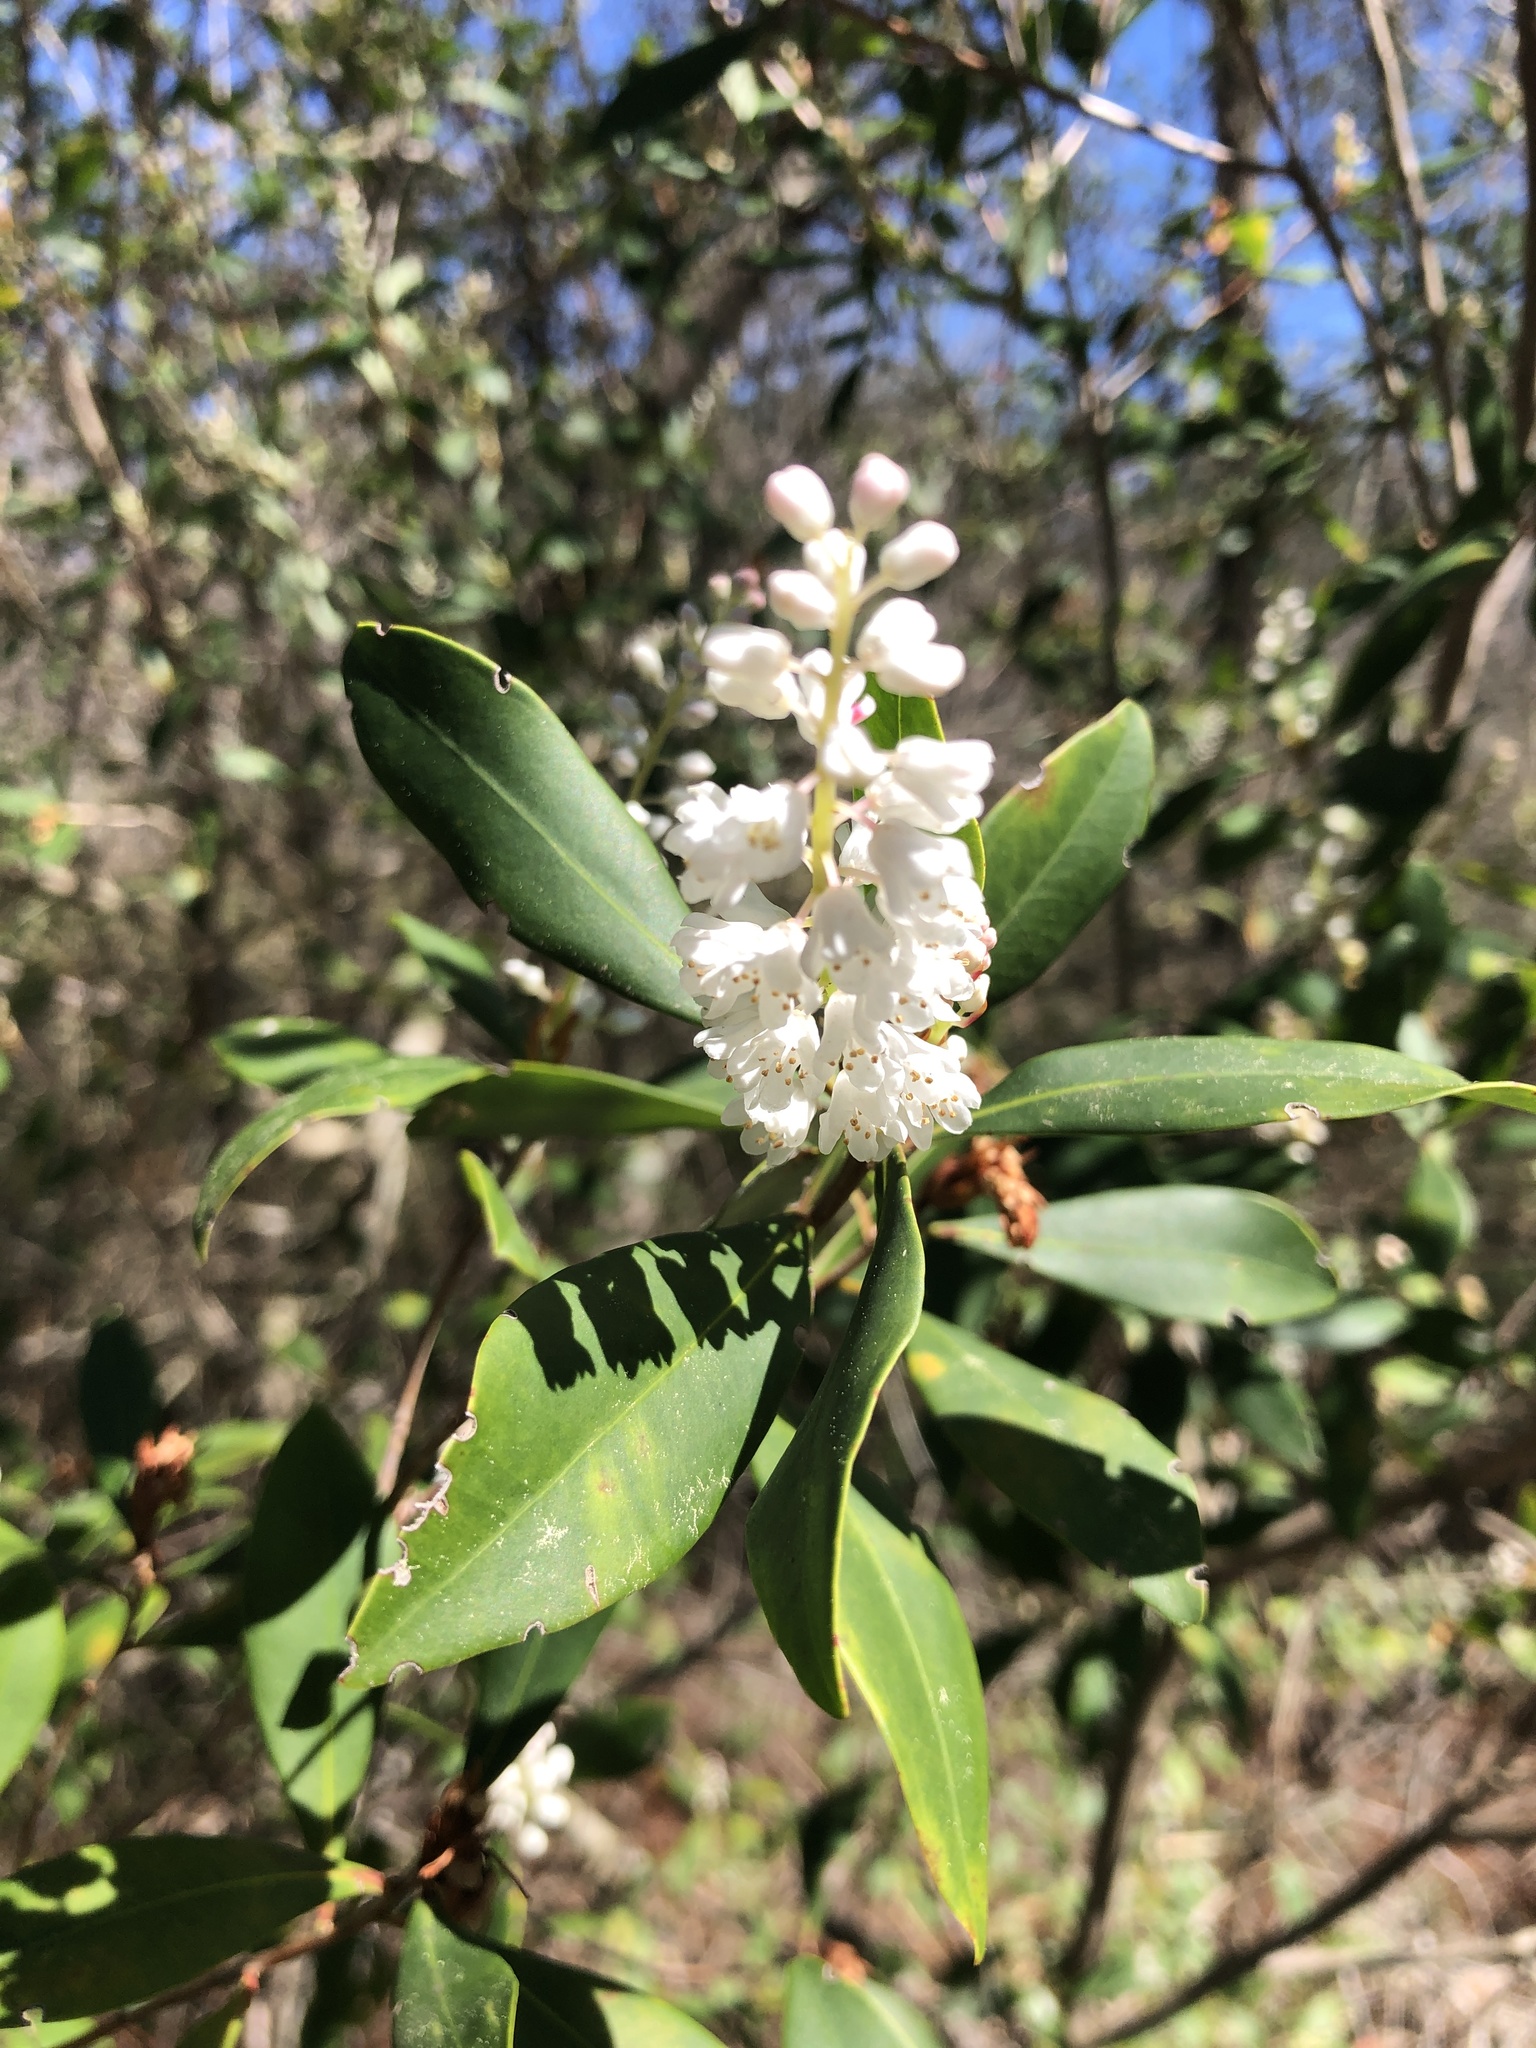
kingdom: Plantae
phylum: Tracheophyta
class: Magnoliopsida
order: Ericales
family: Cyrillaceae
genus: Cliftonia
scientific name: Cliftonia monophylla
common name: Titi
